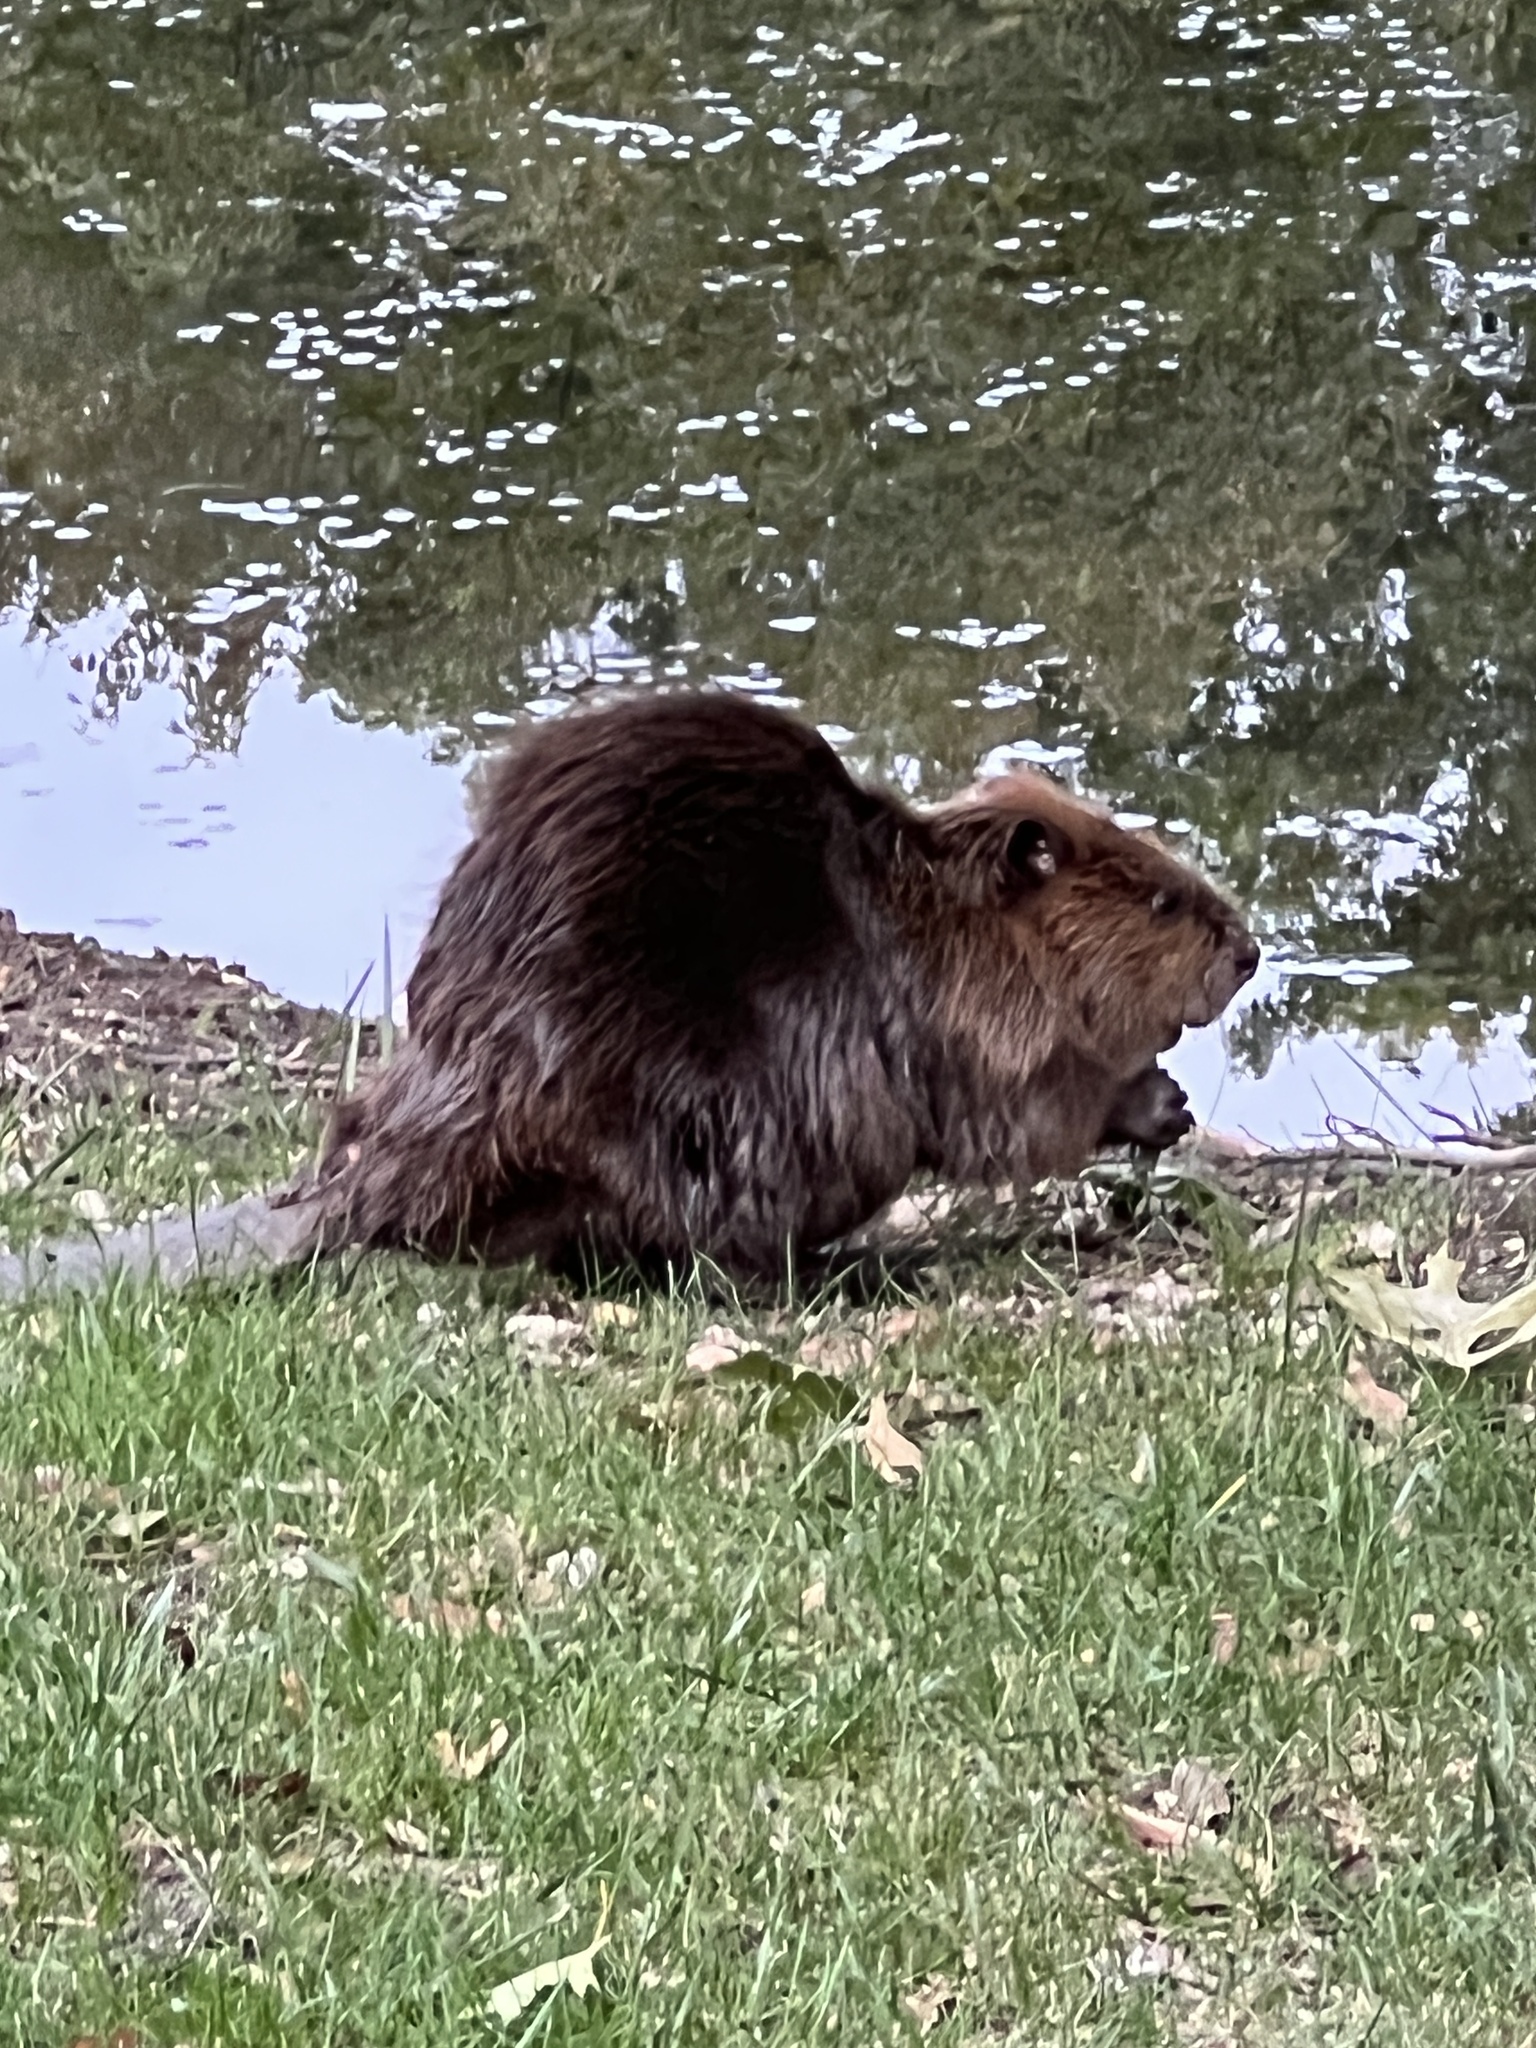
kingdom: Animalia
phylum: Chordata
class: Mammalia
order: Rodentia
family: Castoridae
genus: Castor
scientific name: Castor canadensis
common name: American beaver
